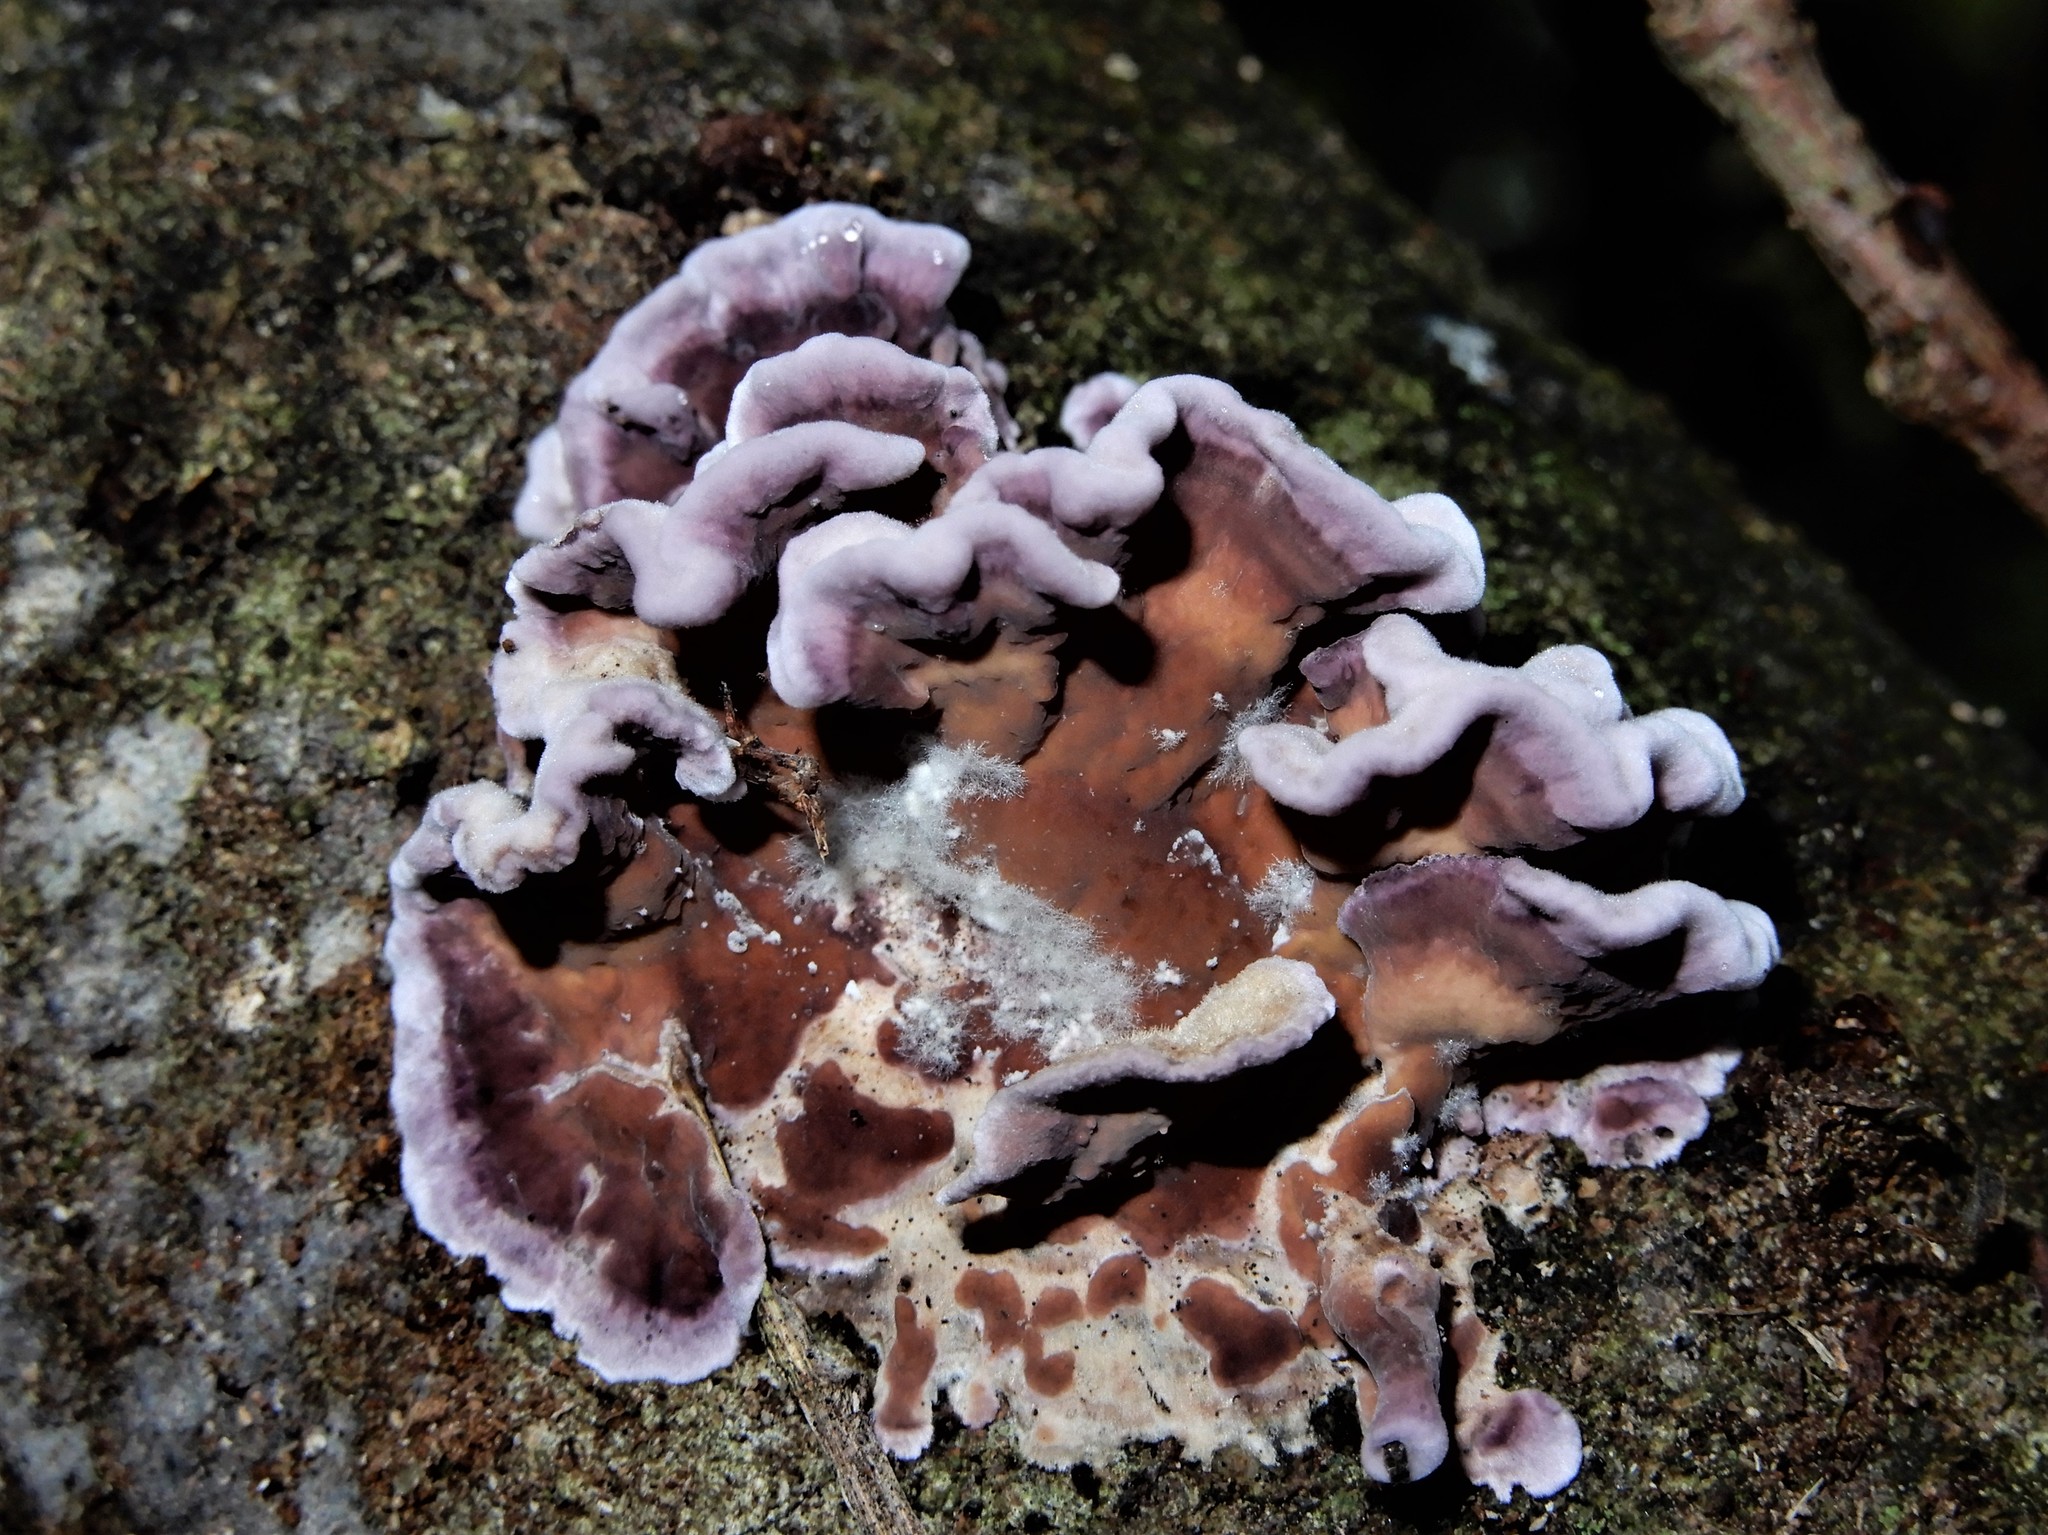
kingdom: Fungi
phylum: Basidiomycota
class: Agaricomycetes
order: Agaricales
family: Cyphellaceae
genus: Chondrostereum
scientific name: Chondrostereum purpureum
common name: Silver leaf disease
